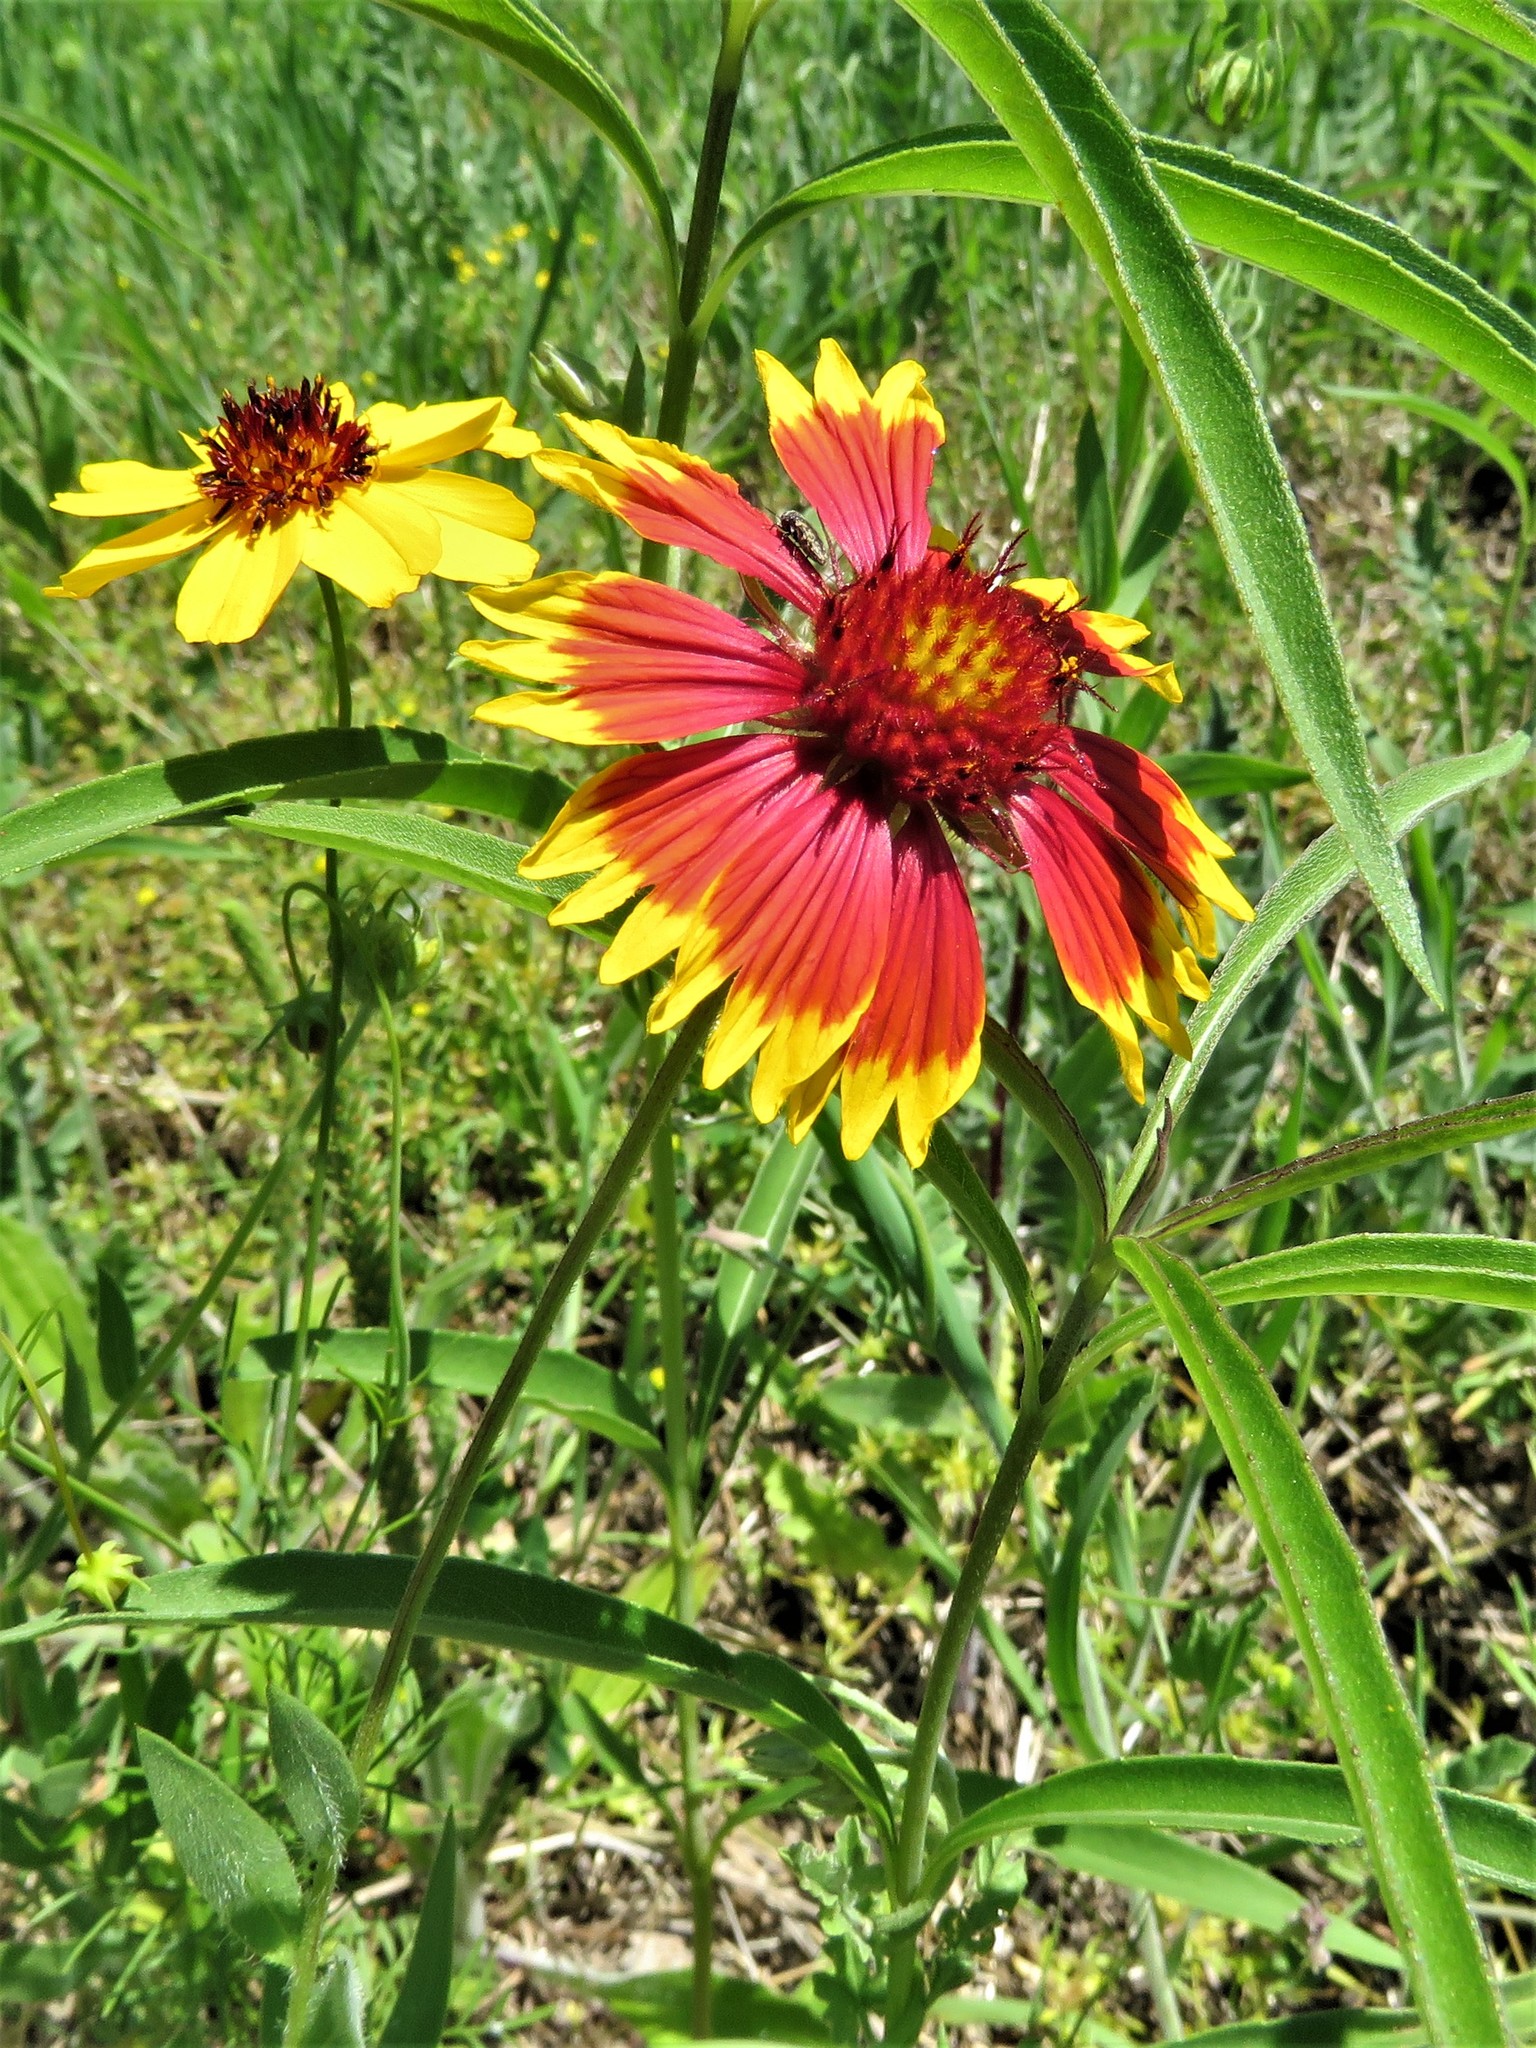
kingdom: Plantae
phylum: Tracheophyta
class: Magnoliopsida
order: Asterales
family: Asteraceae
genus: Gaillardia
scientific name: Gaillardia pulchella
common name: Firewheel
